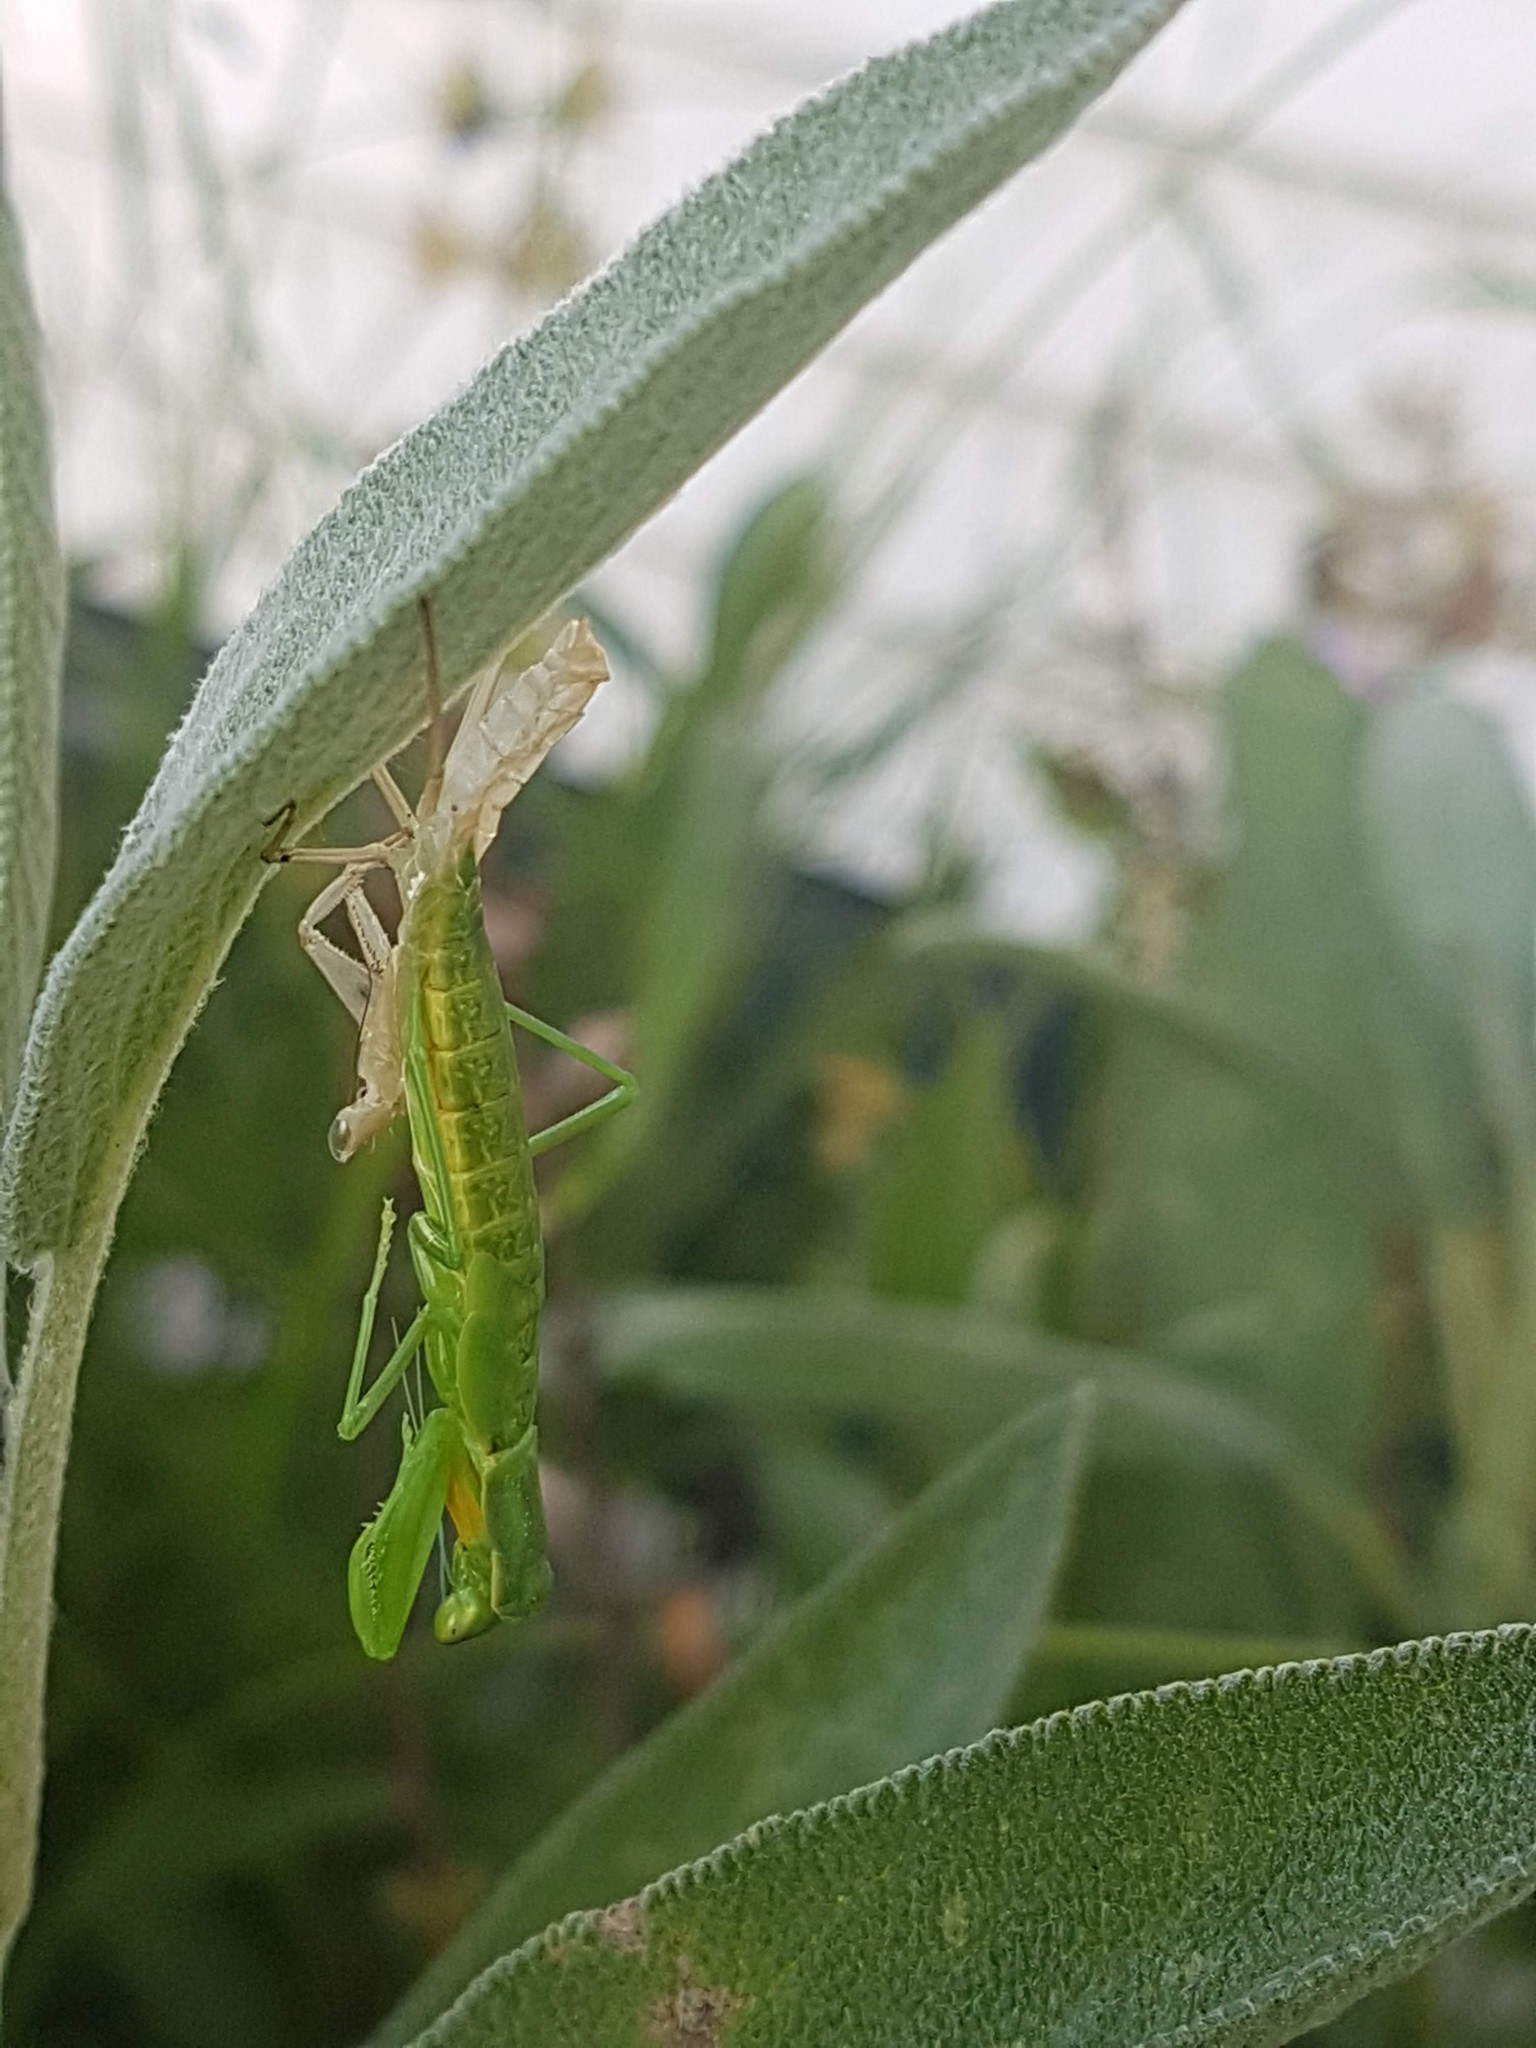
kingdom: Animalia
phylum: Arthropoda
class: Insecta
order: Mantodea
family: Mantidae
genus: Orthodera
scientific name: Orthodera novaezealandiae
